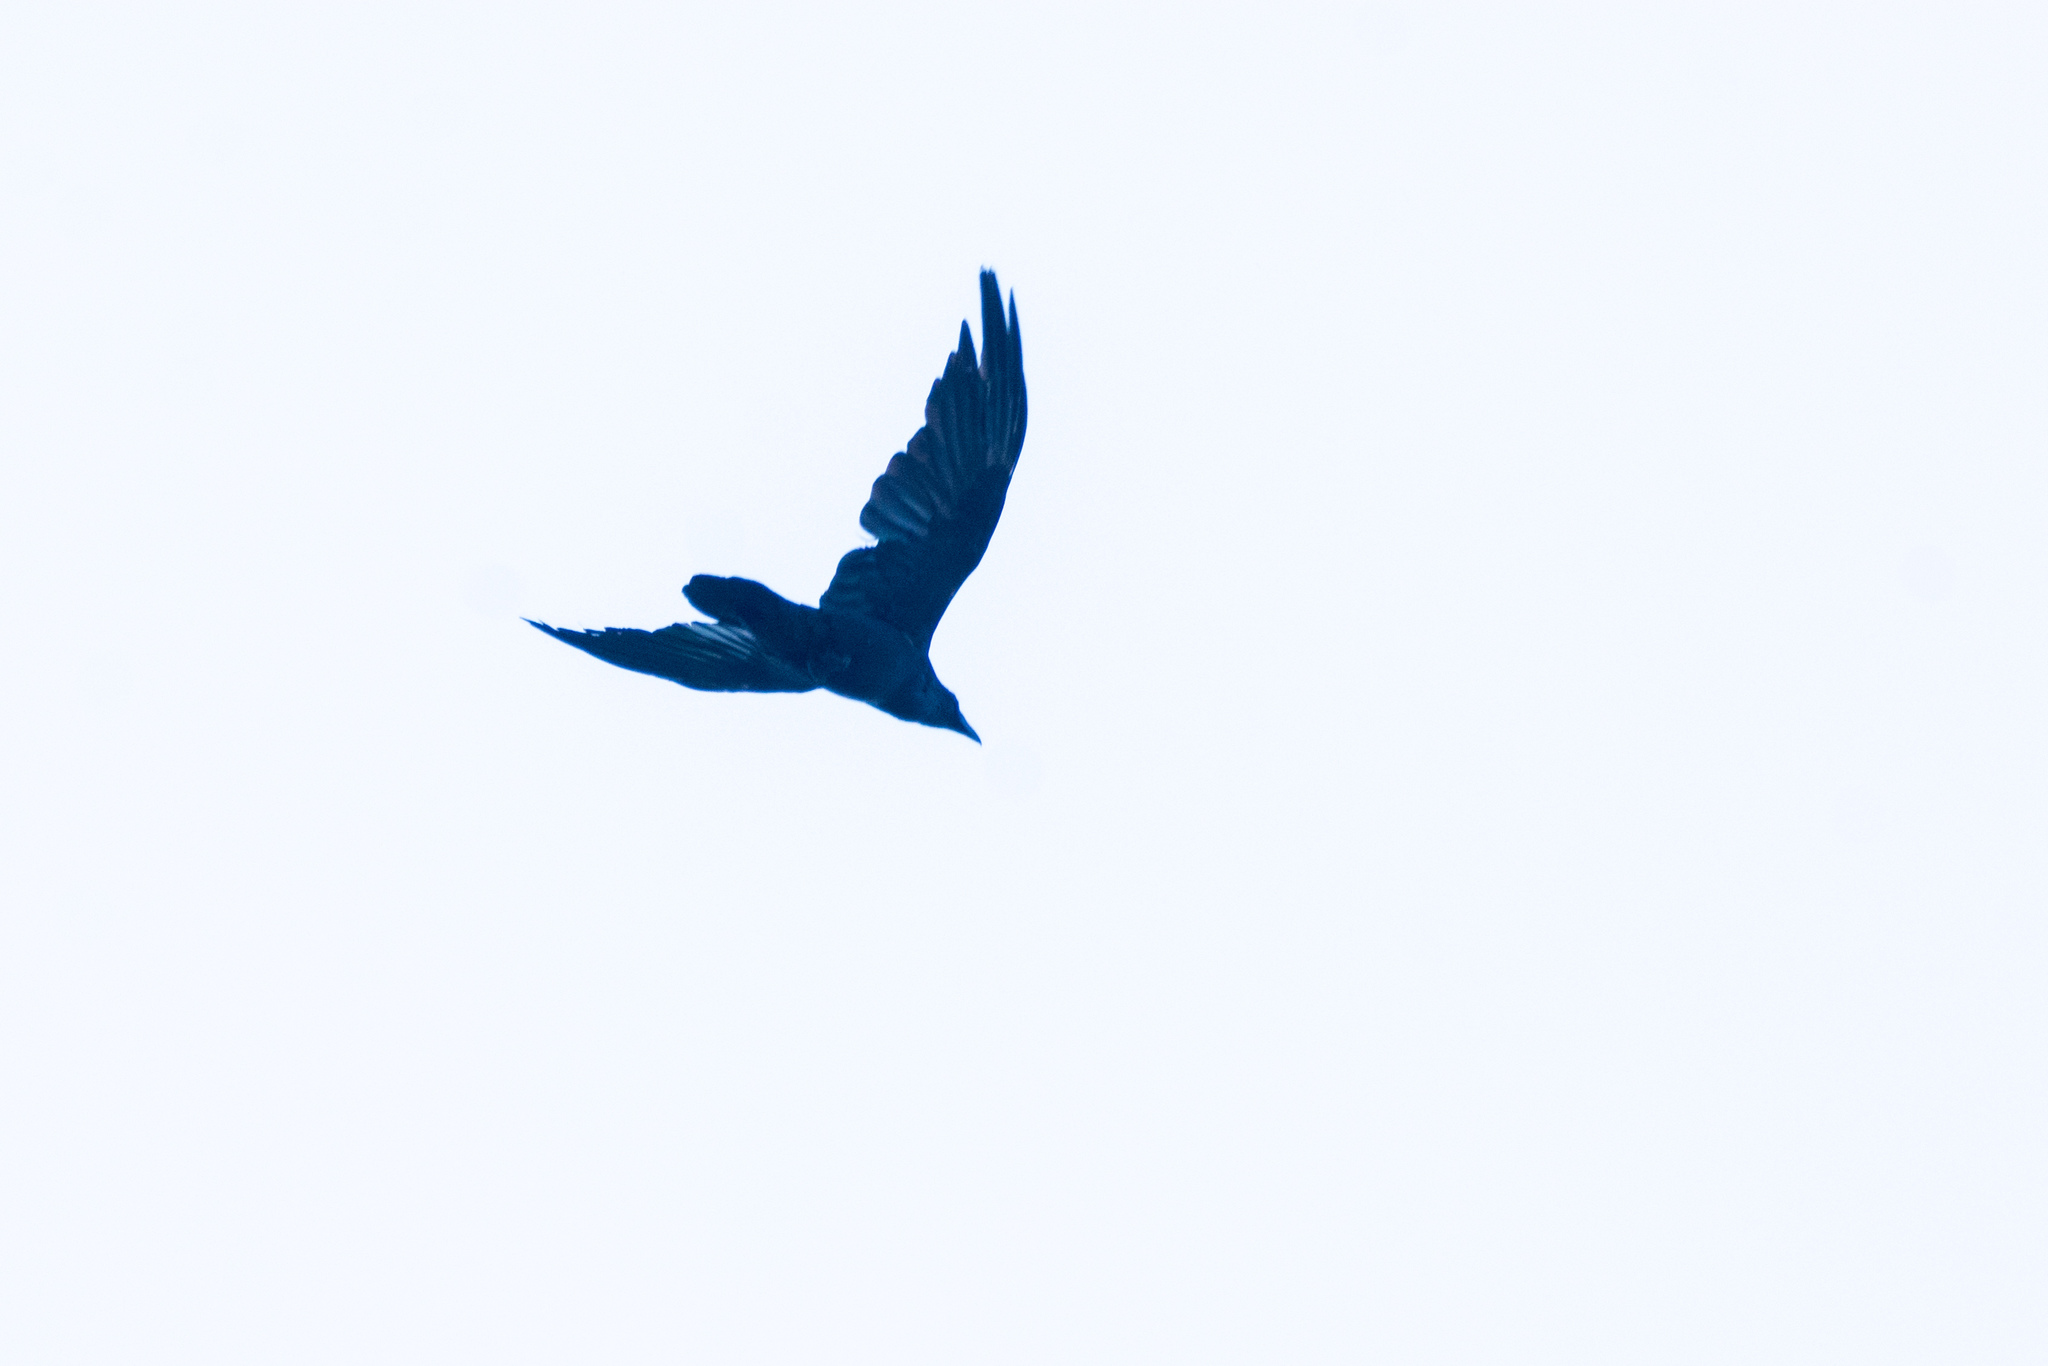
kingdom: Animalia
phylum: Chordata
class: Aves
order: Passeriformes
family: Corvidae
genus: Corvus
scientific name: Corvus corax
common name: Common raven
